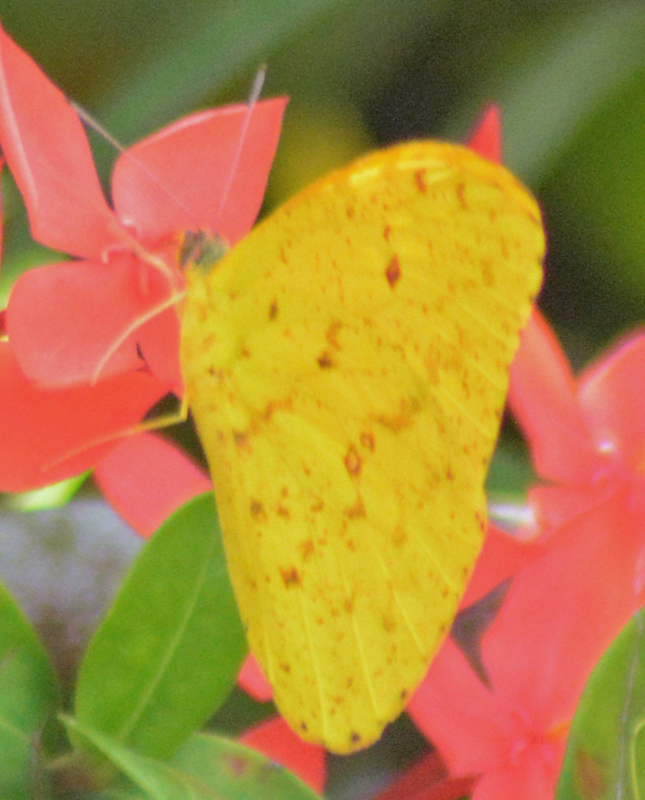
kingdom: Animalia
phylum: Arthropoda
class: Insecta
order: Lepidoptera
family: Pieridae
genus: Phoebis
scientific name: Phoebis argante
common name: Apricot sulphur
